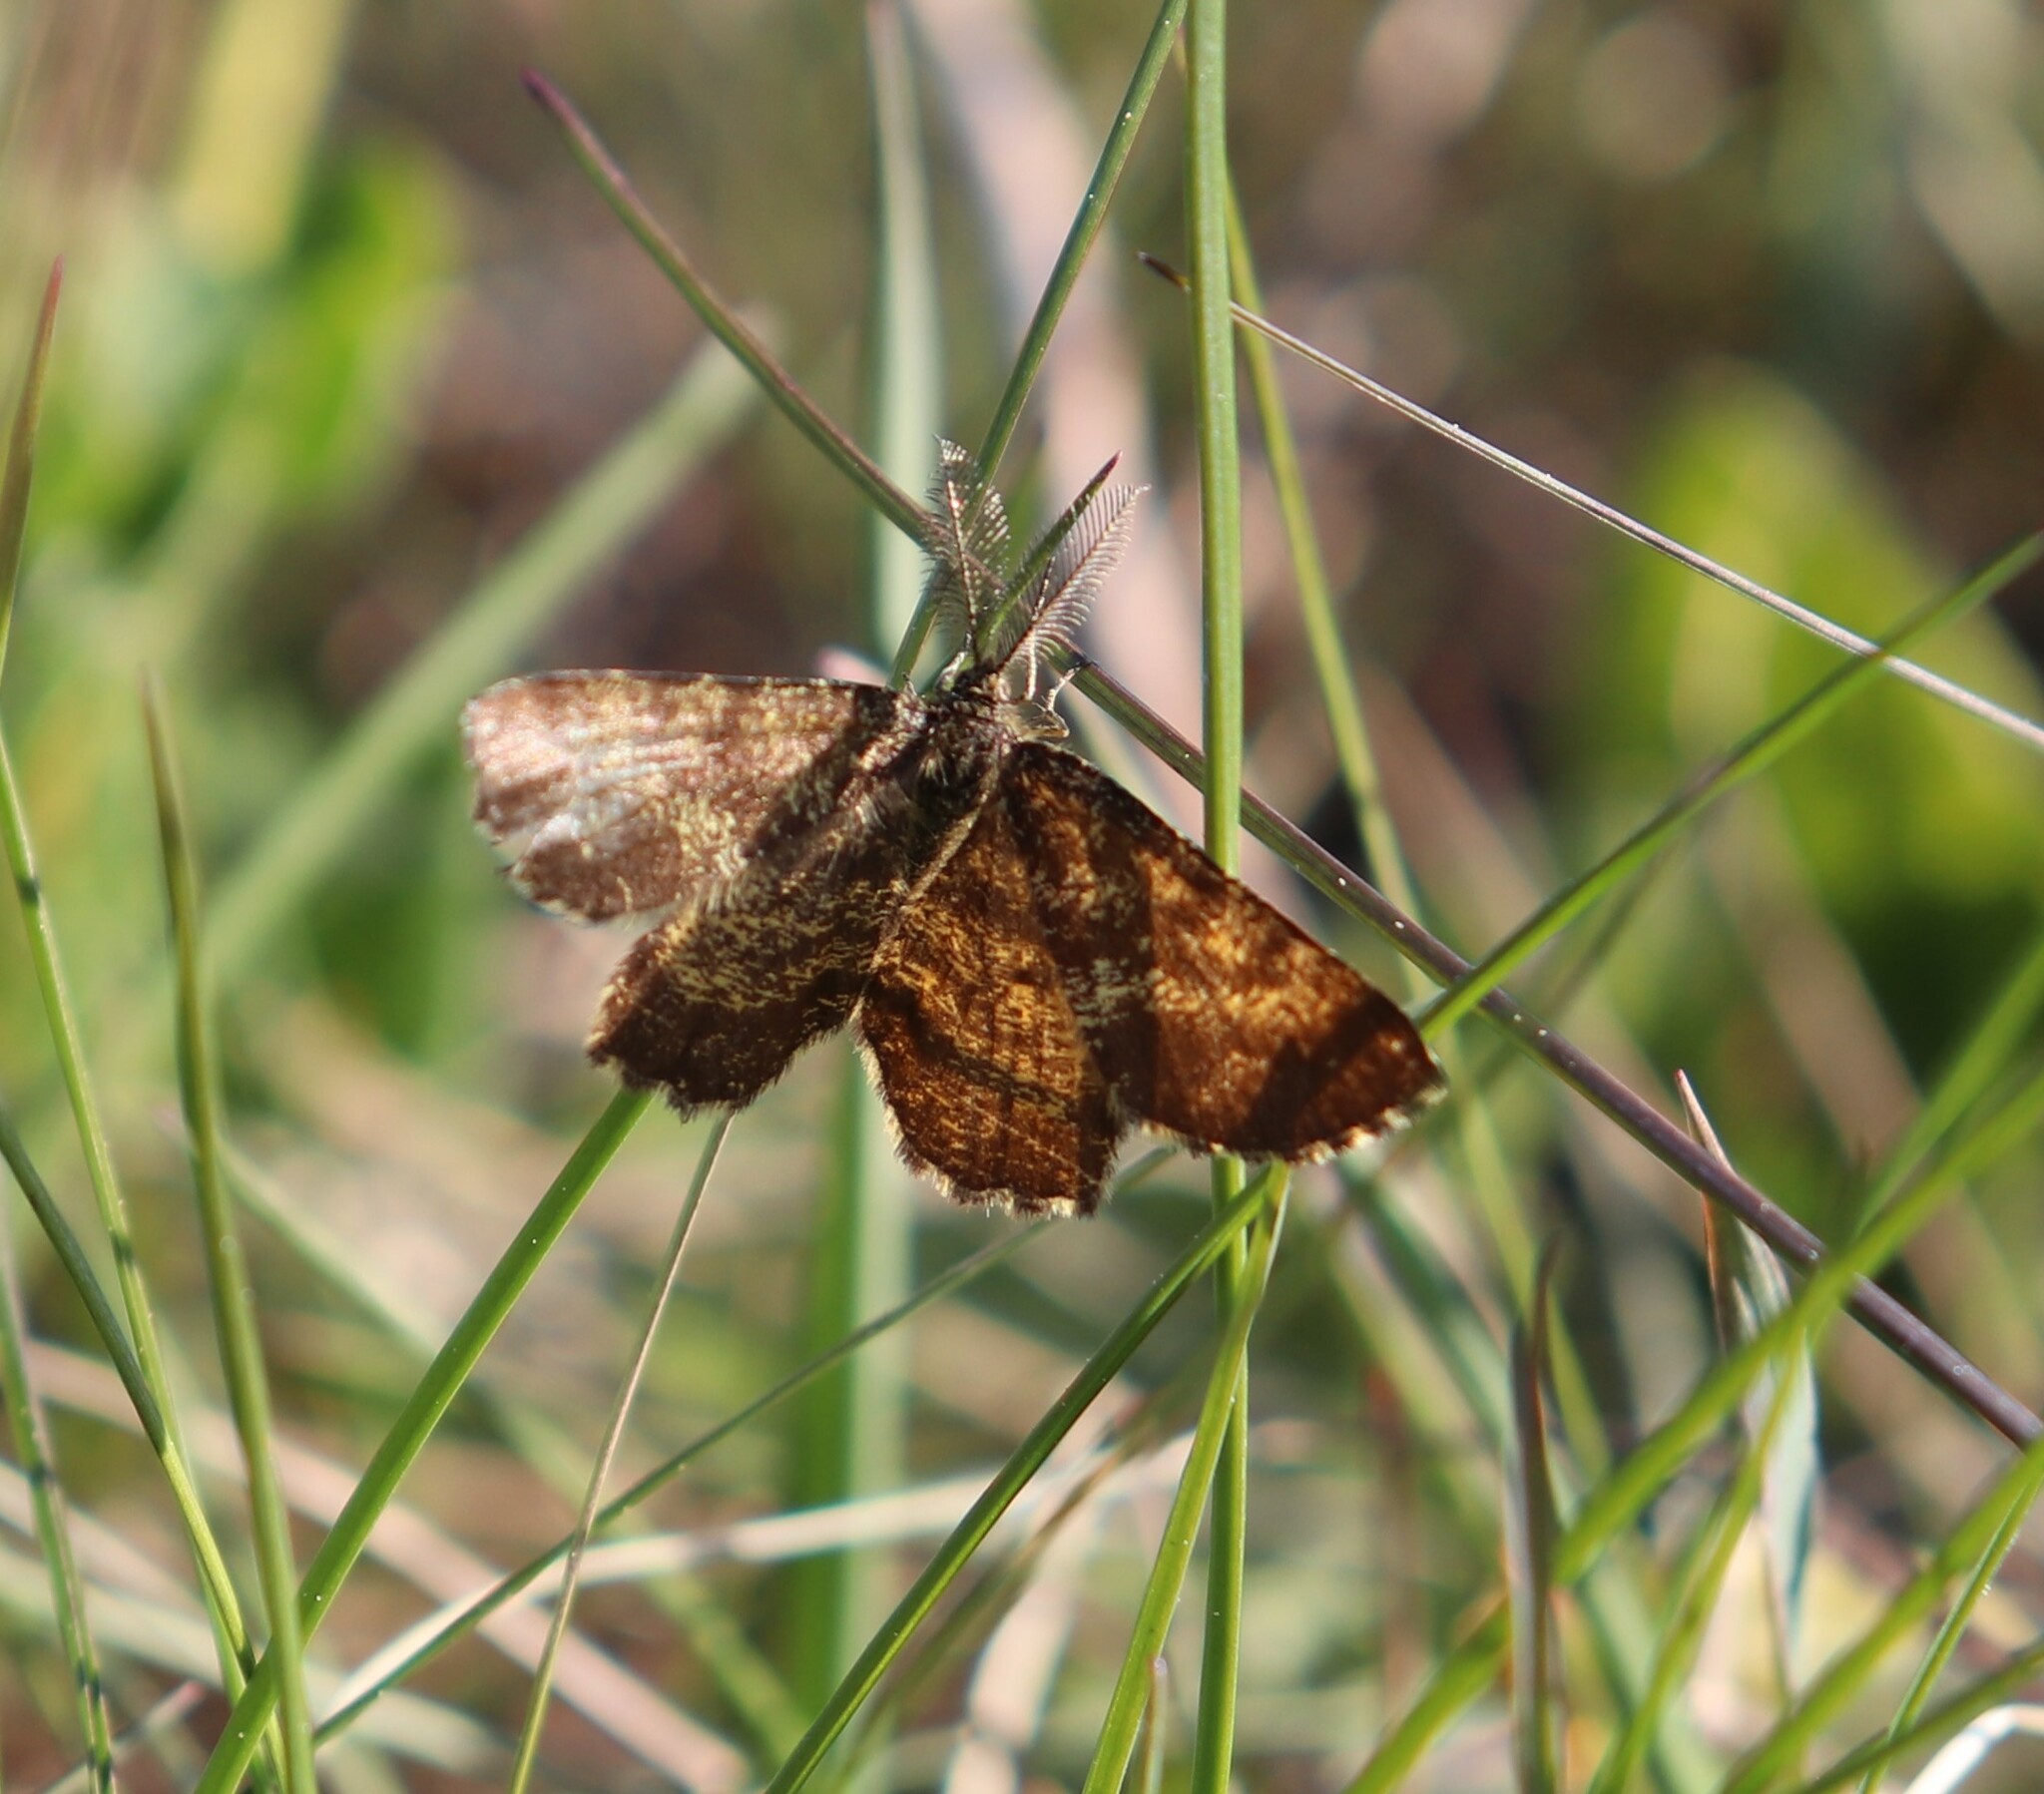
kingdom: Animalia
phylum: Arthropoda
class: Insecta
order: Lepidoptera
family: Geometridae
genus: Ematurga
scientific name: Ematurga atomaria
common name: Common heath
